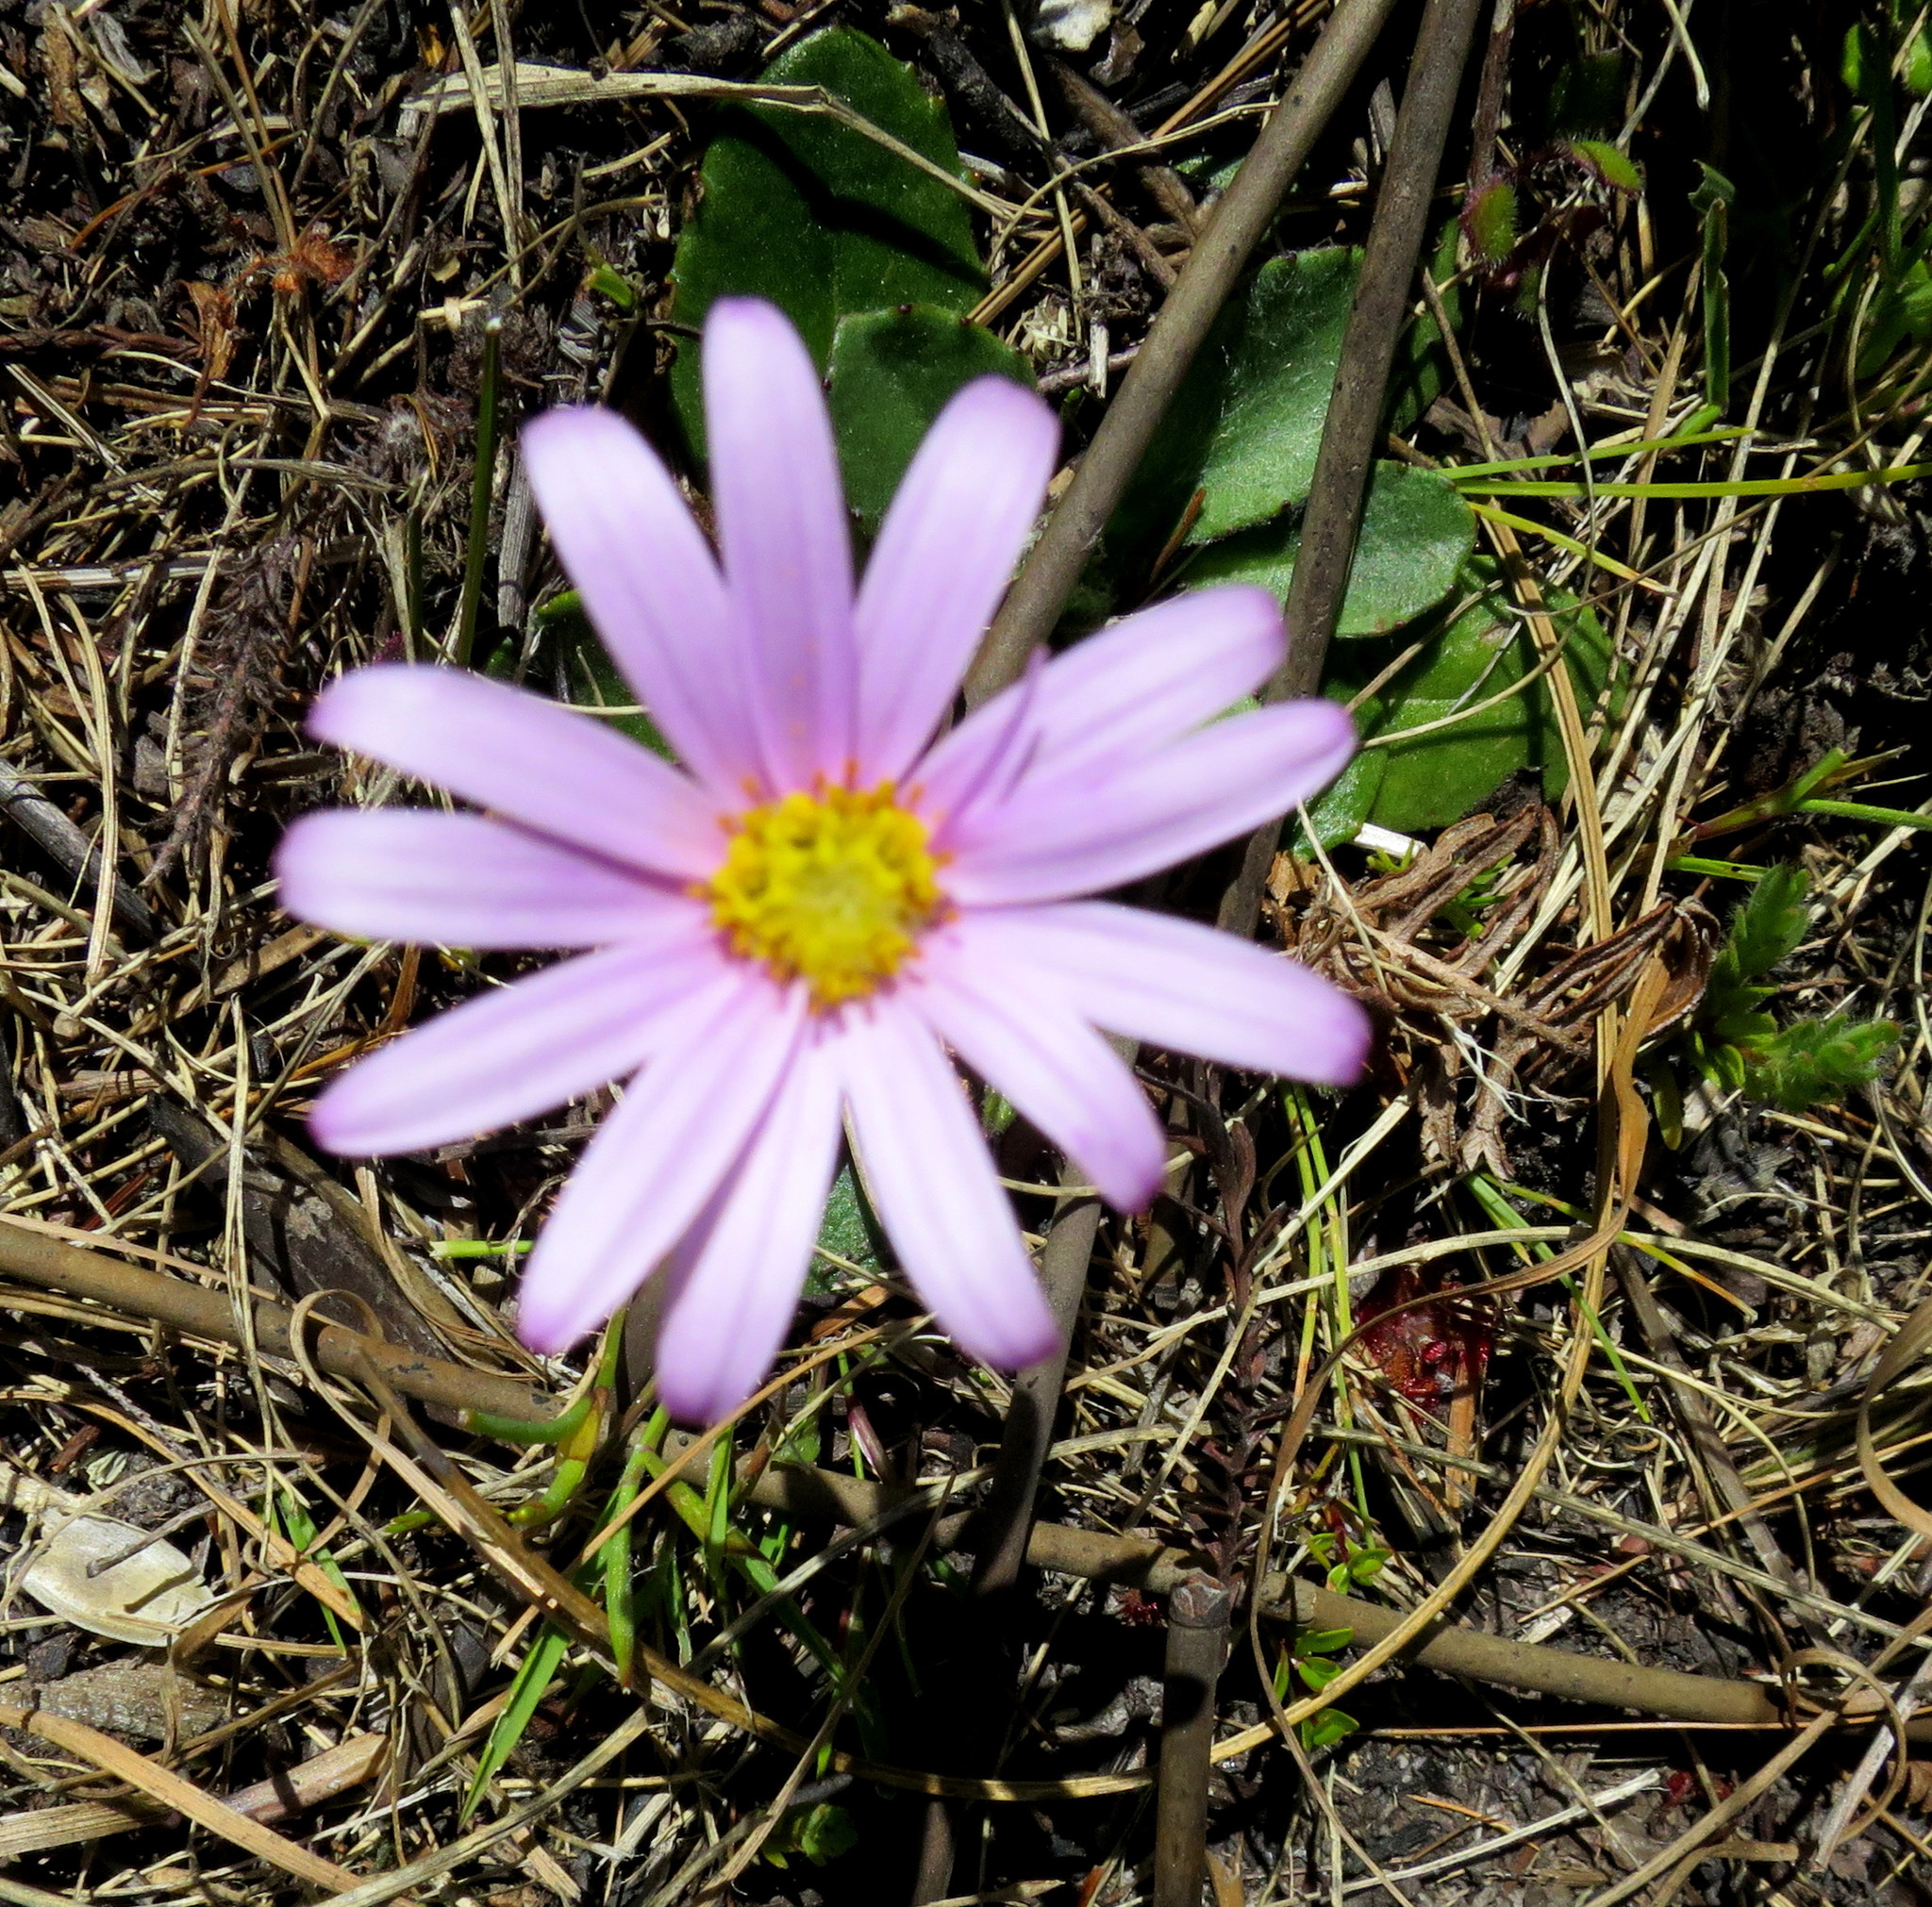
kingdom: Plantae
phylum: Tracheophyta
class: Magnoliopsida
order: Asterales
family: Asteraceae
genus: Zyrphelis
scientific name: Zyrphelis crenata
